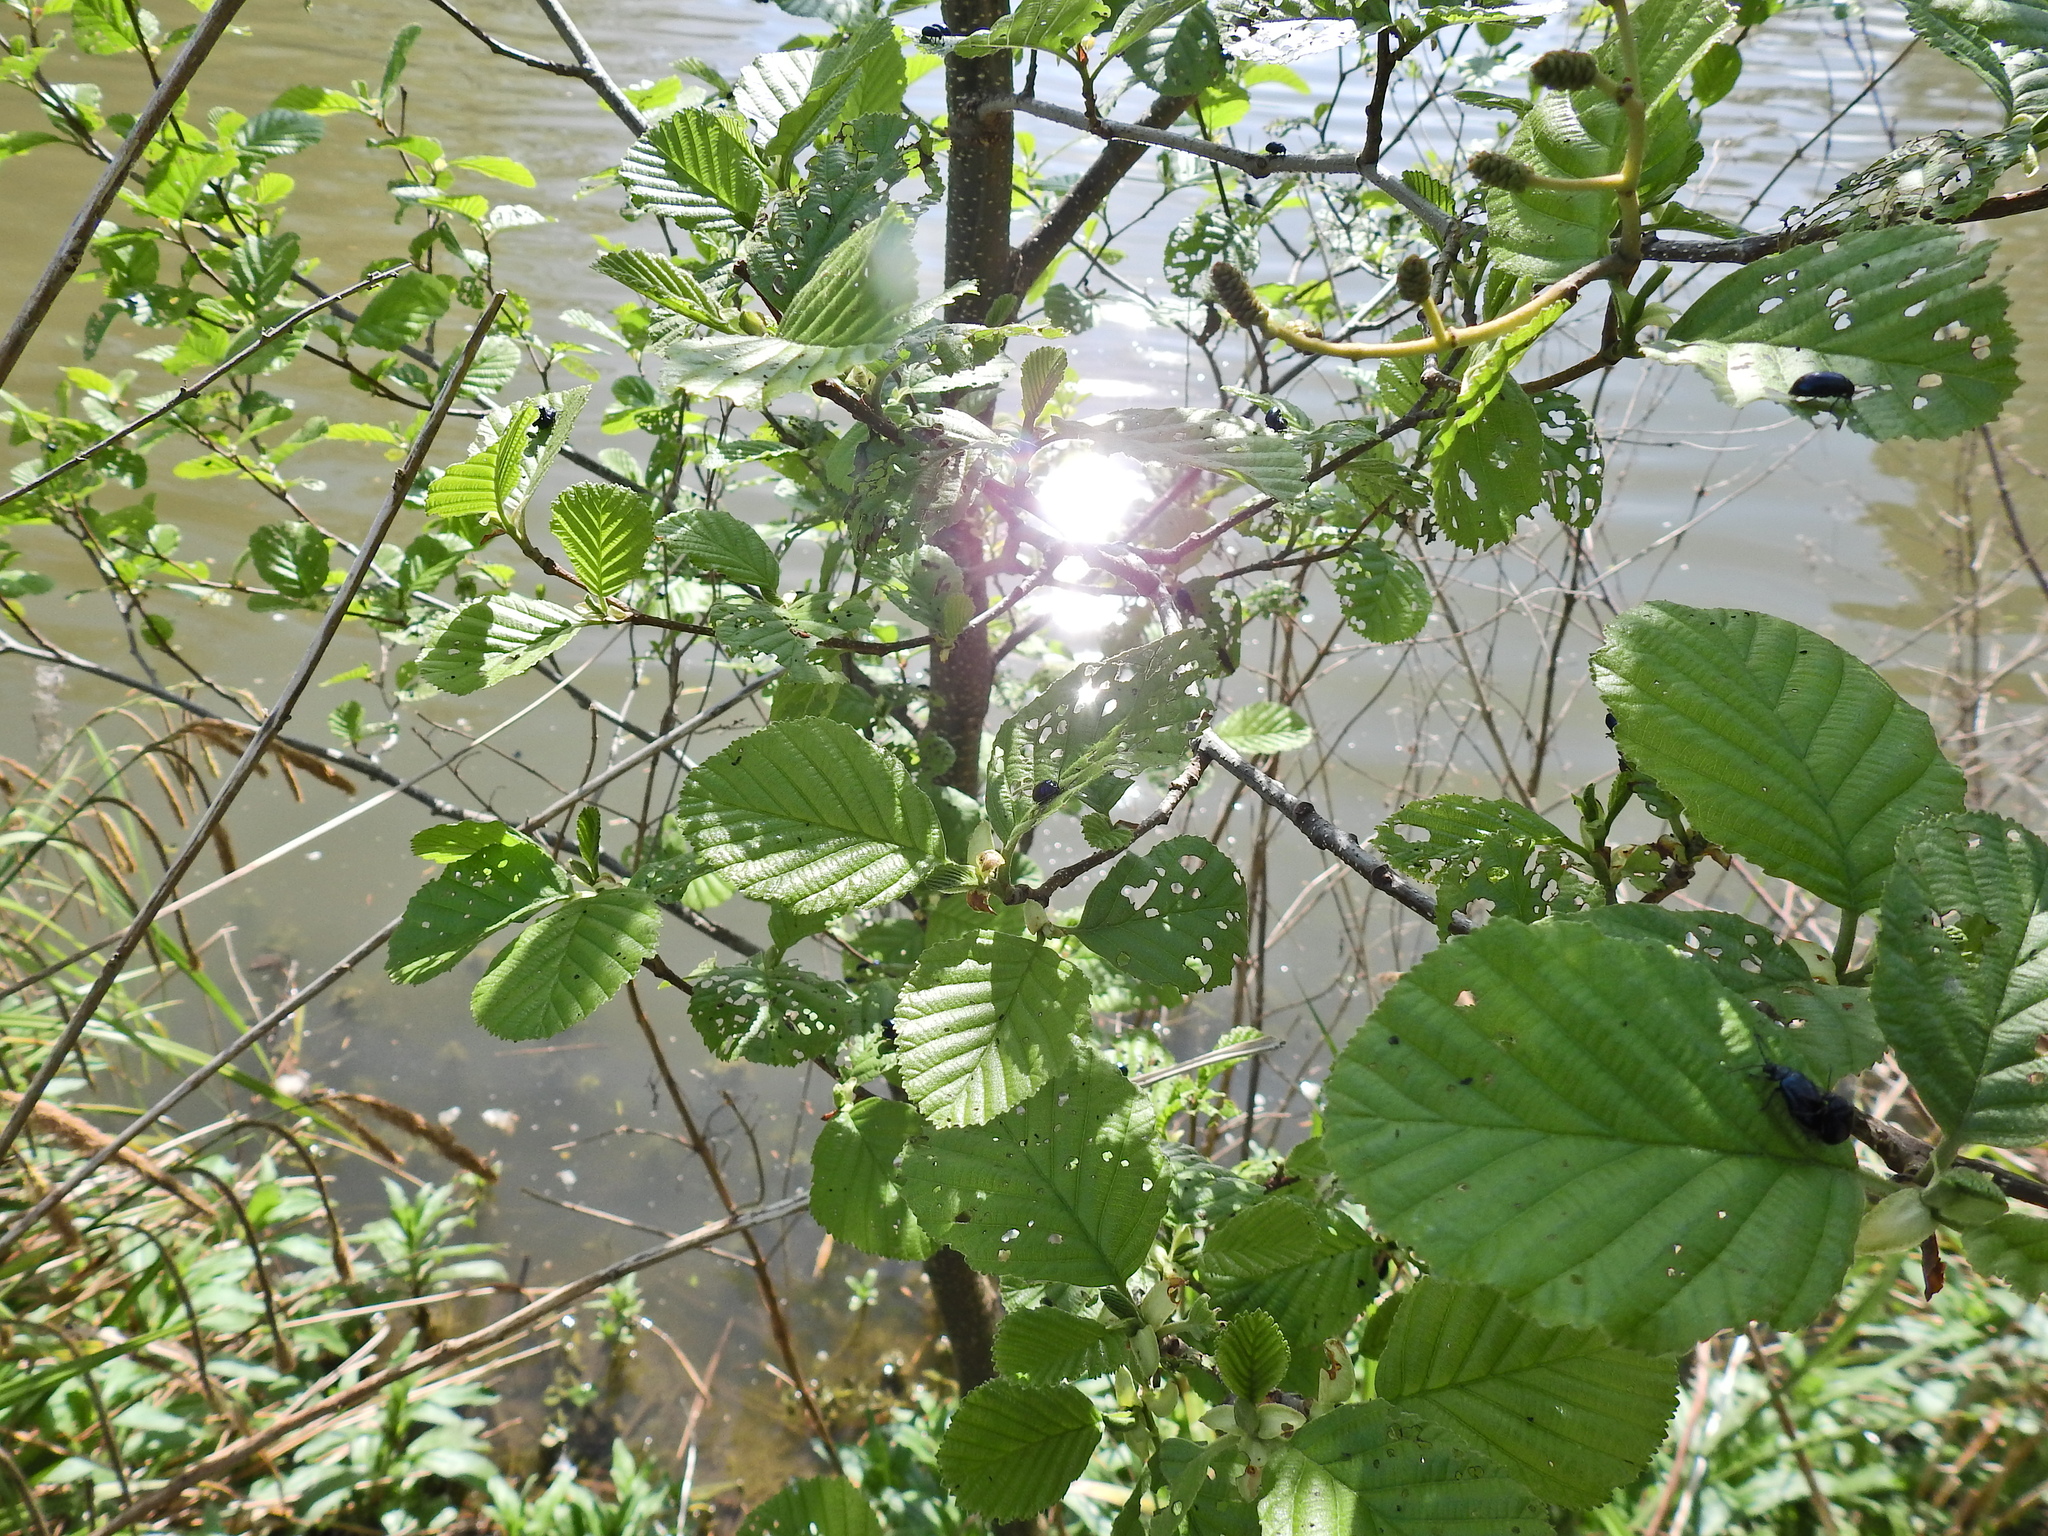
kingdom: Plantae
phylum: Tracheophyta
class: Magnoliopsida
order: Fagales
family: Betulaceae
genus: Alnus
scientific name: Alnus glutinosa
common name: Black alder
